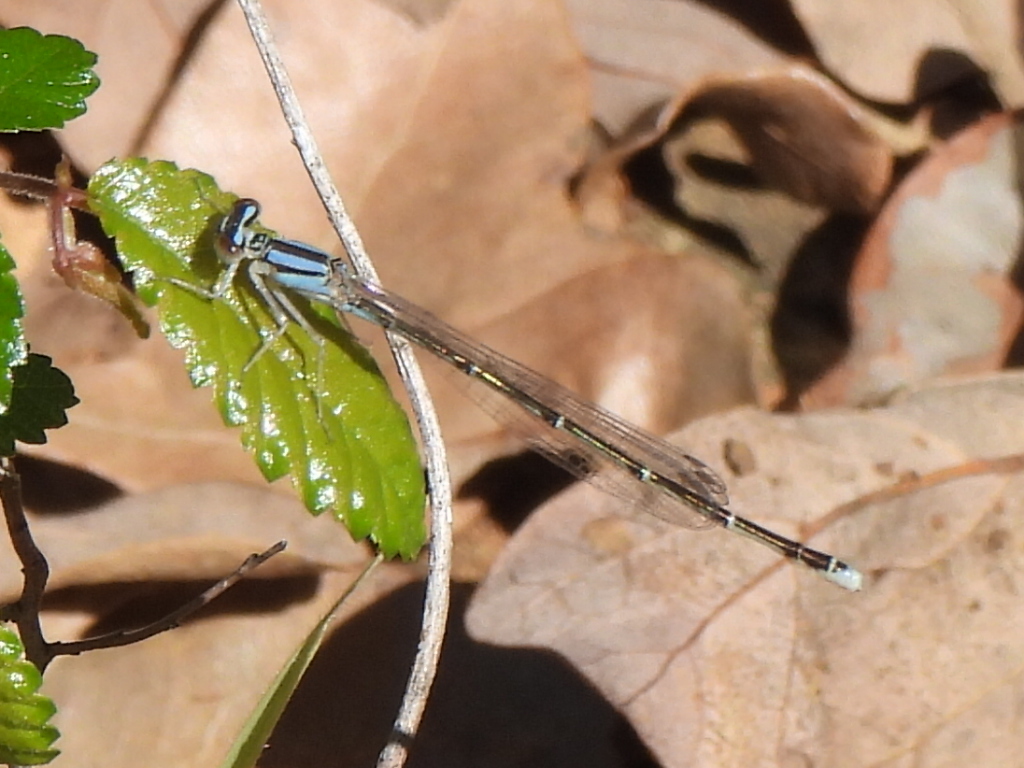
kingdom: Animalia
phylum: Arthropoda
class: Insecta
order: Odonata
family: Coenagrionidae
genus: Enallagma
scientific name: Enallagma signatum
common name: Orange bluet
